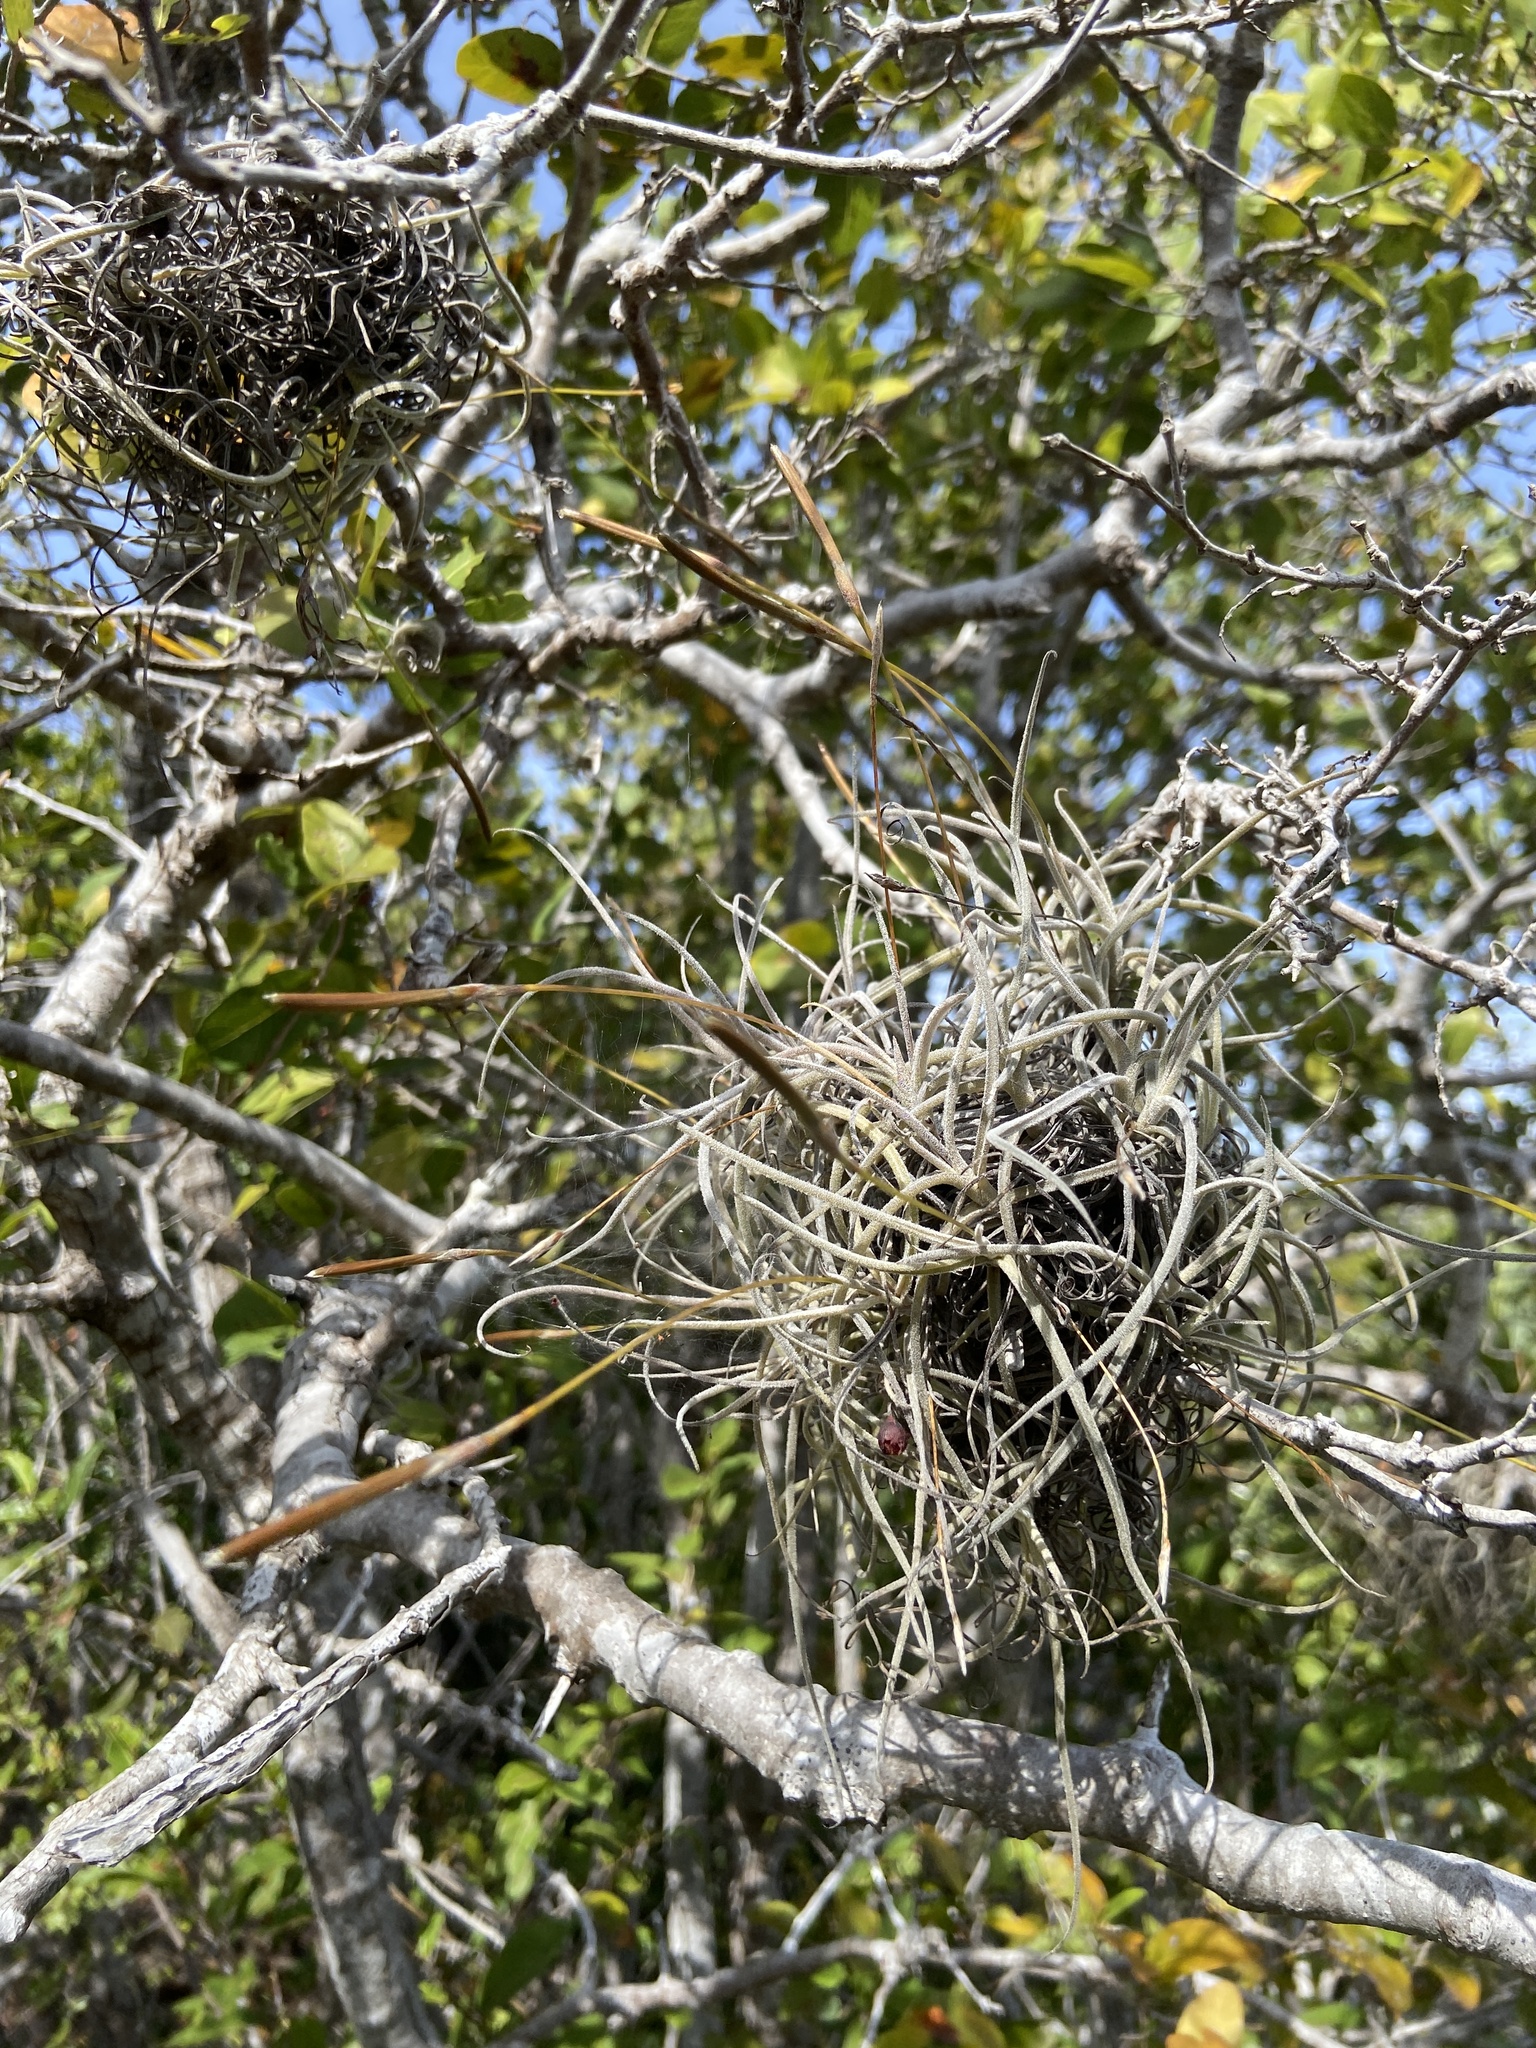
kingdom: Plantae
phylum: Tracheophyta
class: Liliopsida
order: Poales
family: Bromeliaceae
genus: Tillandsia
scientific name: Tillandsia recurvata
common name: Small ballmoss
